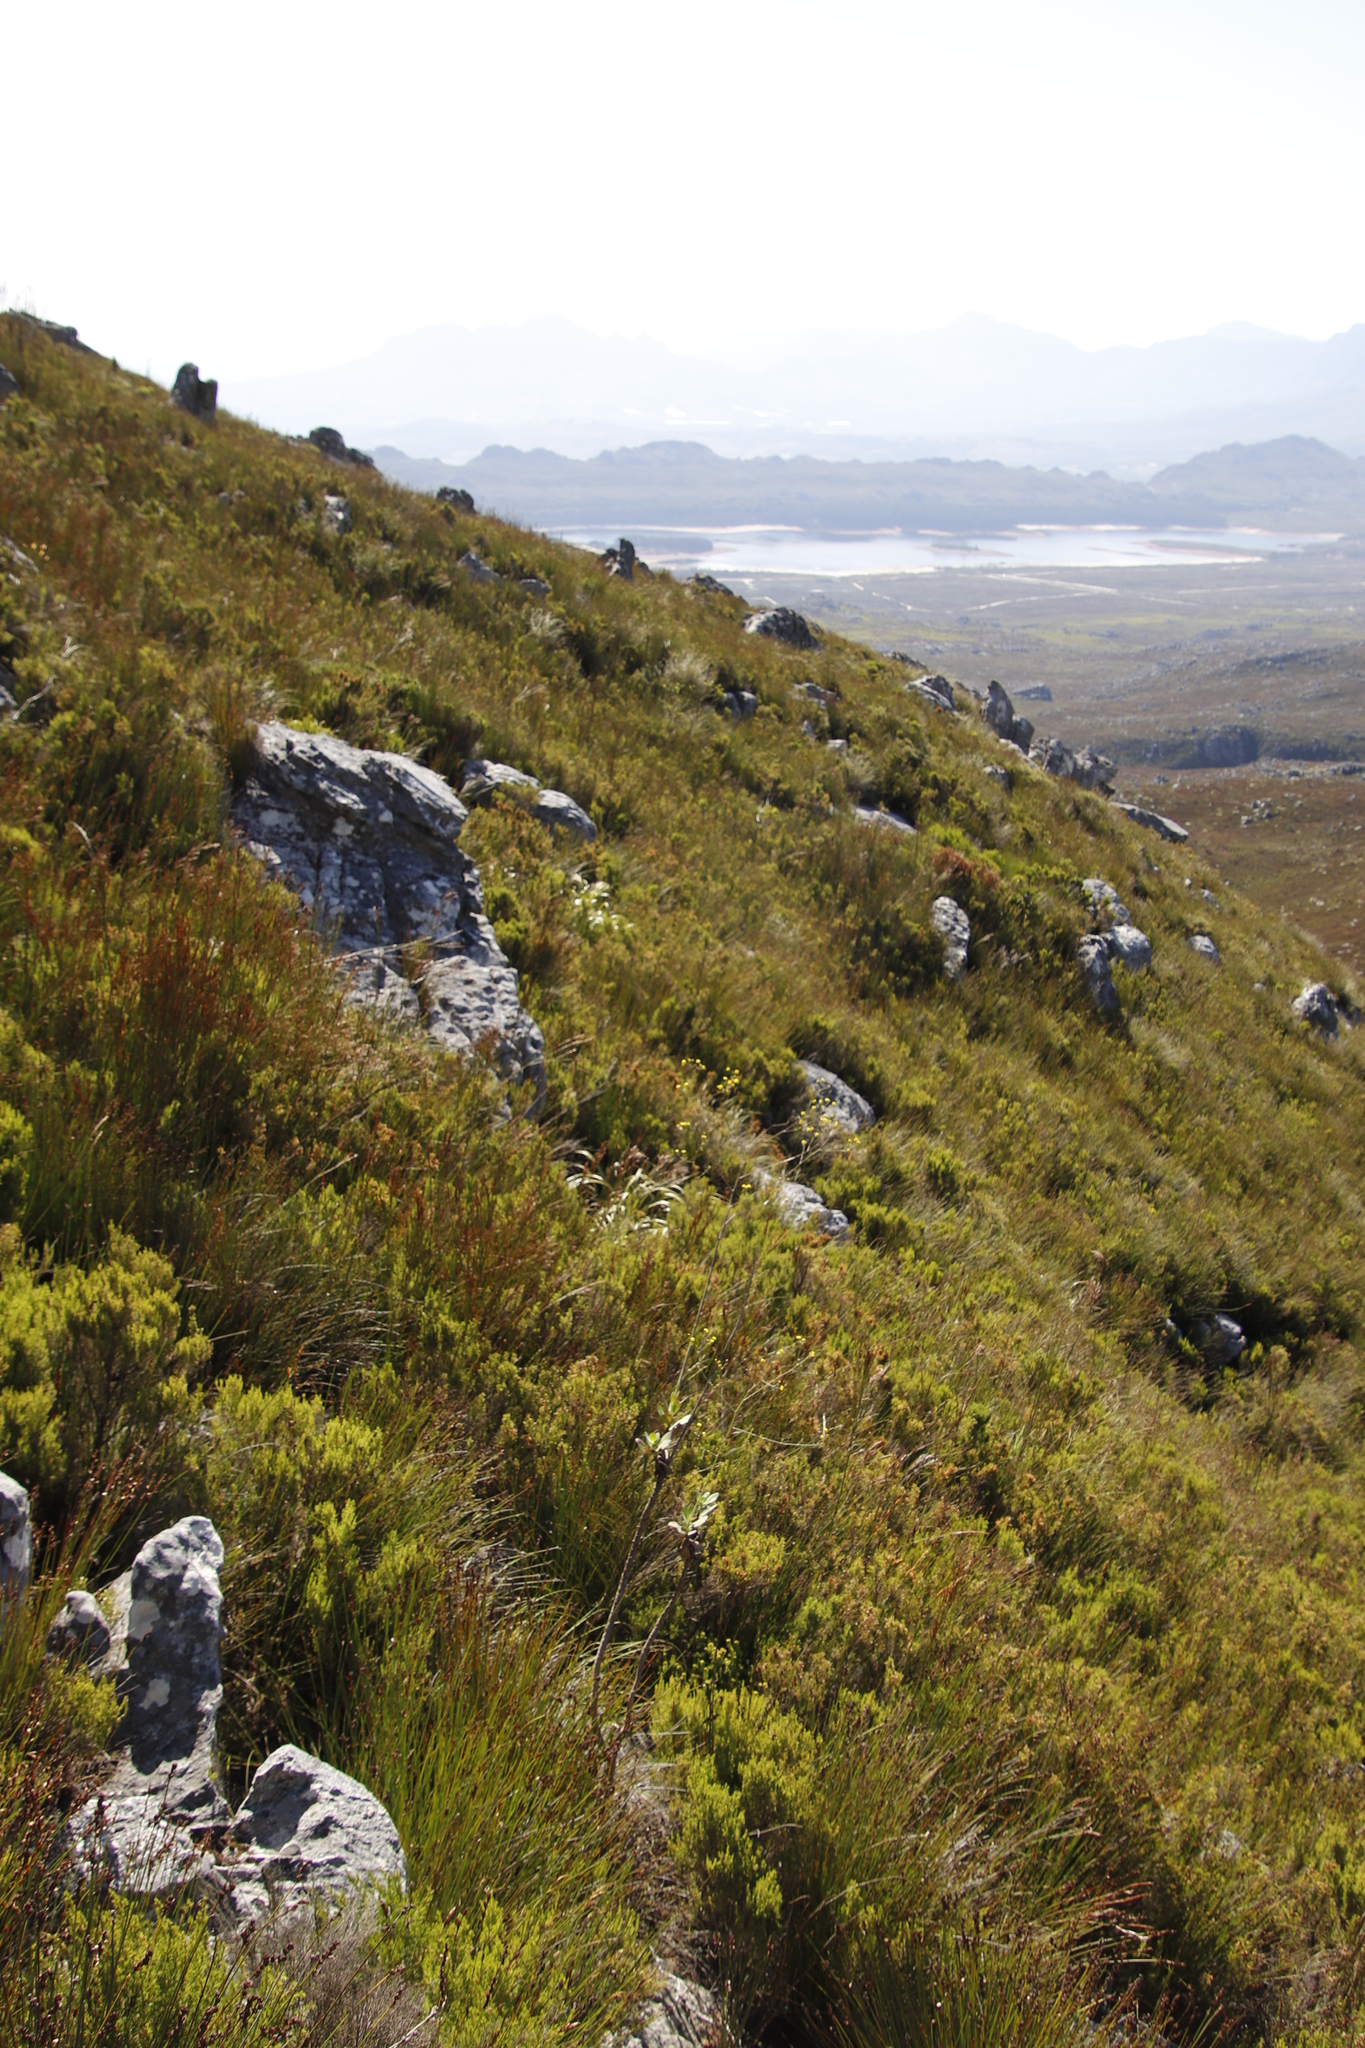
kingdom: Plantae
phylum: Tracheophyta
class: Magnoliopsida
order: Asterales
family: Asteraceae
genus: Othonna
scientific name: Othonna quinquedentata
